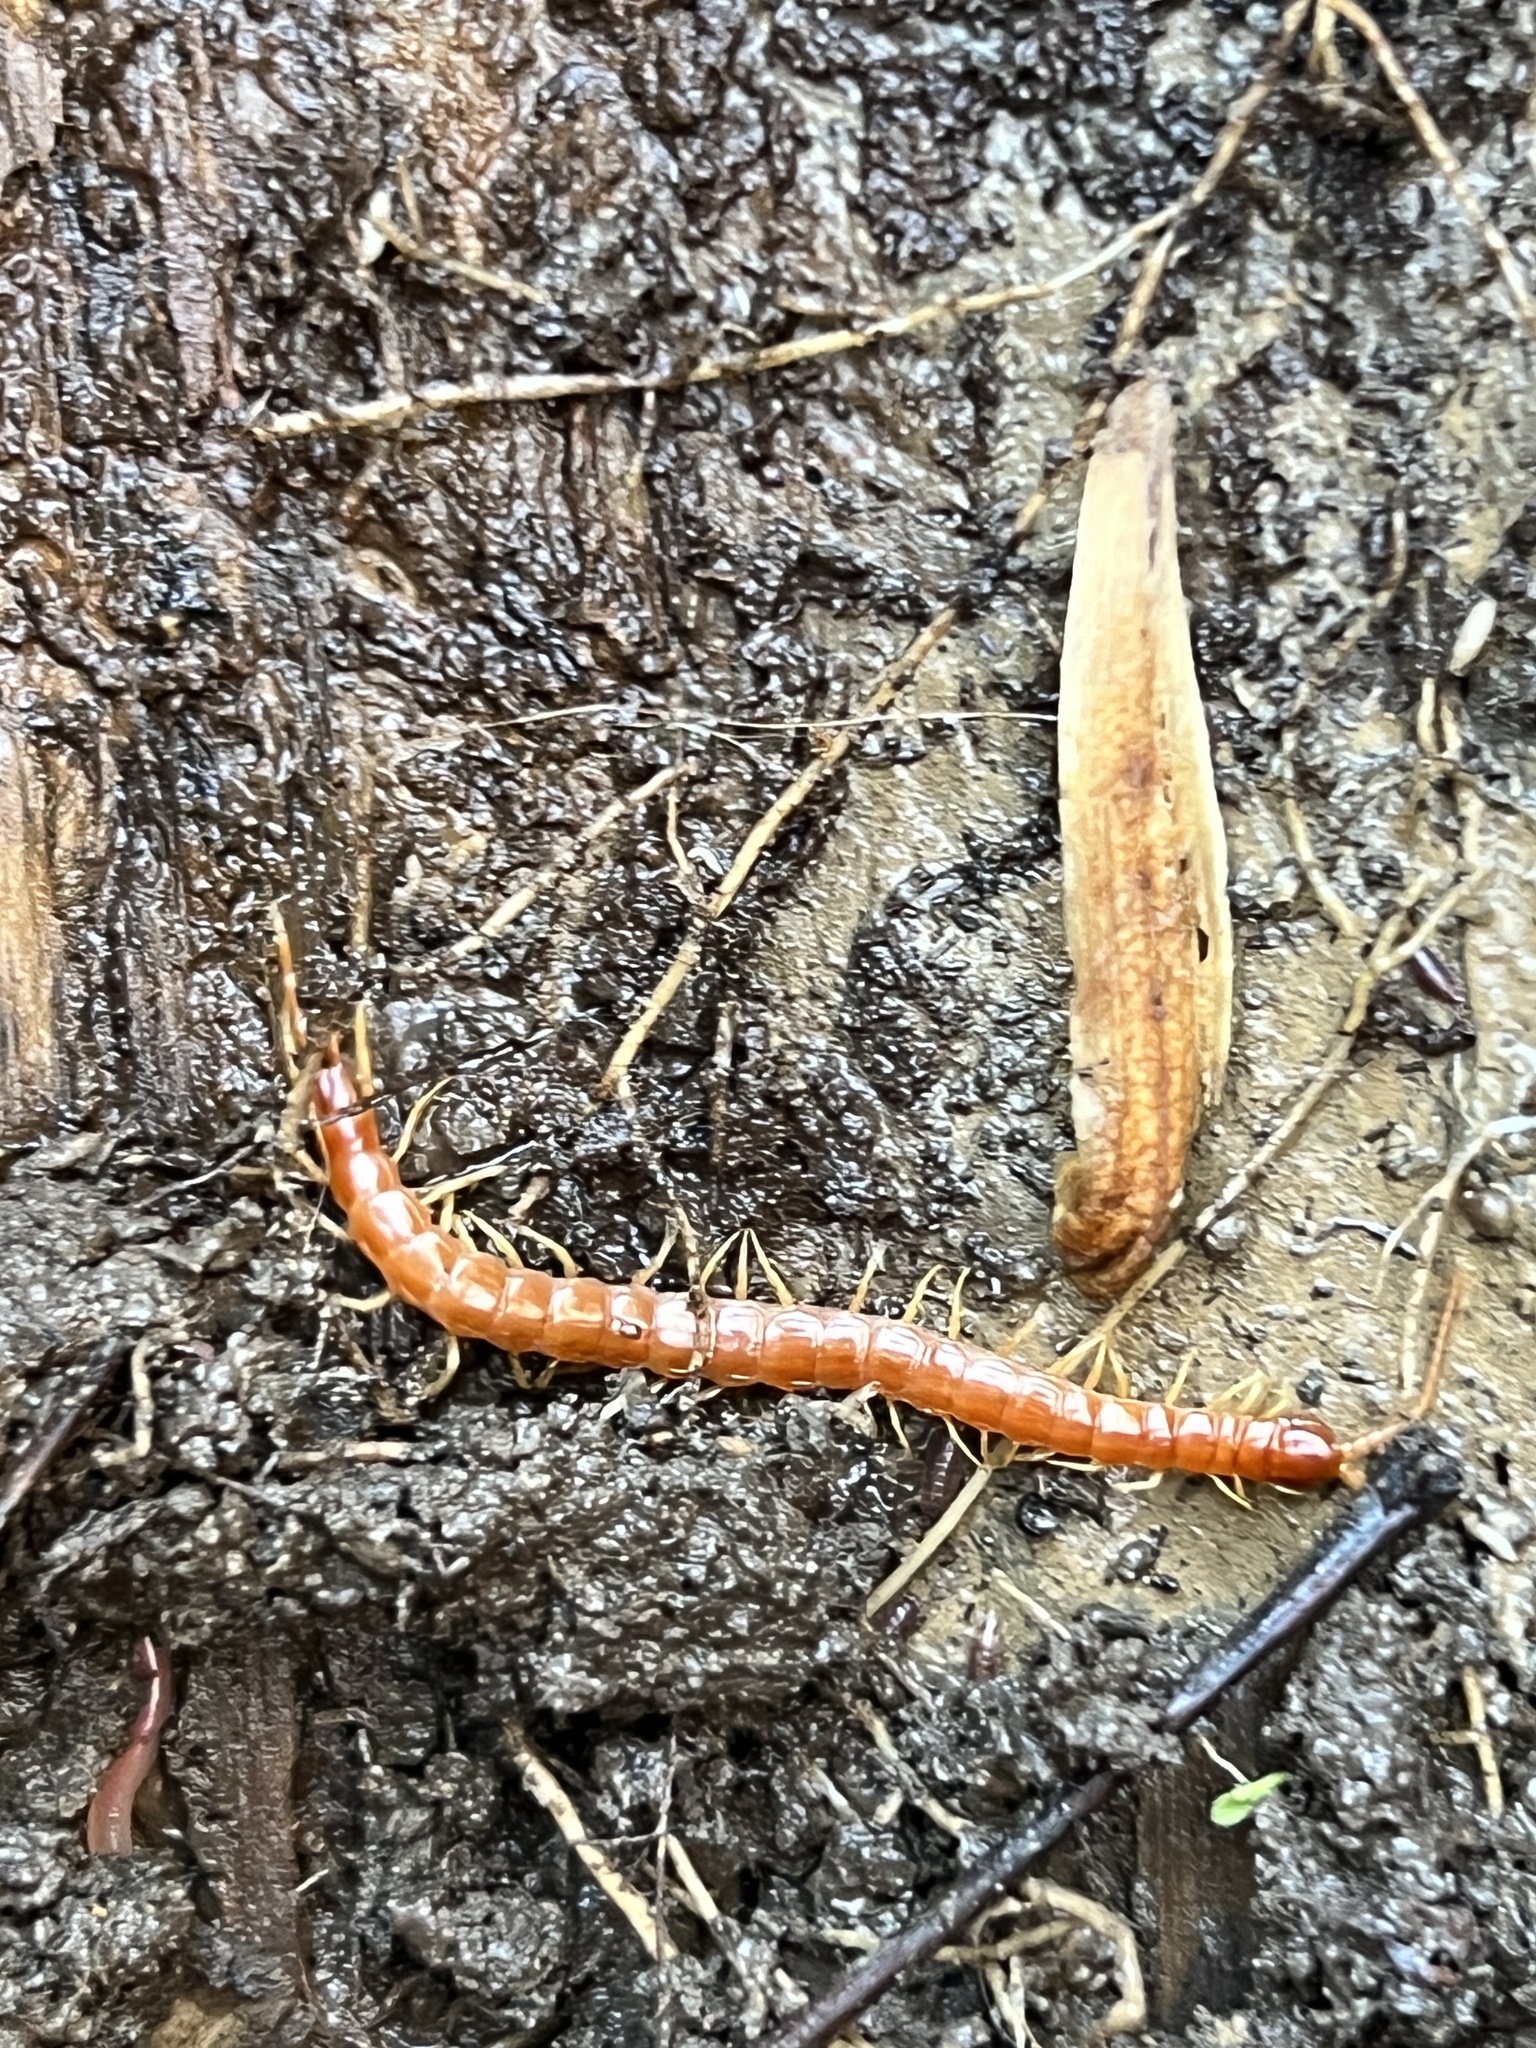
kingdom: Animalia
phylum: Arthropoda
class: Chilopoda
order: Scolopendromorpha
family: Scolopocryptopidae
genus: Scolopocryptops
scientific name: Scolopocryptops sexspinosus
